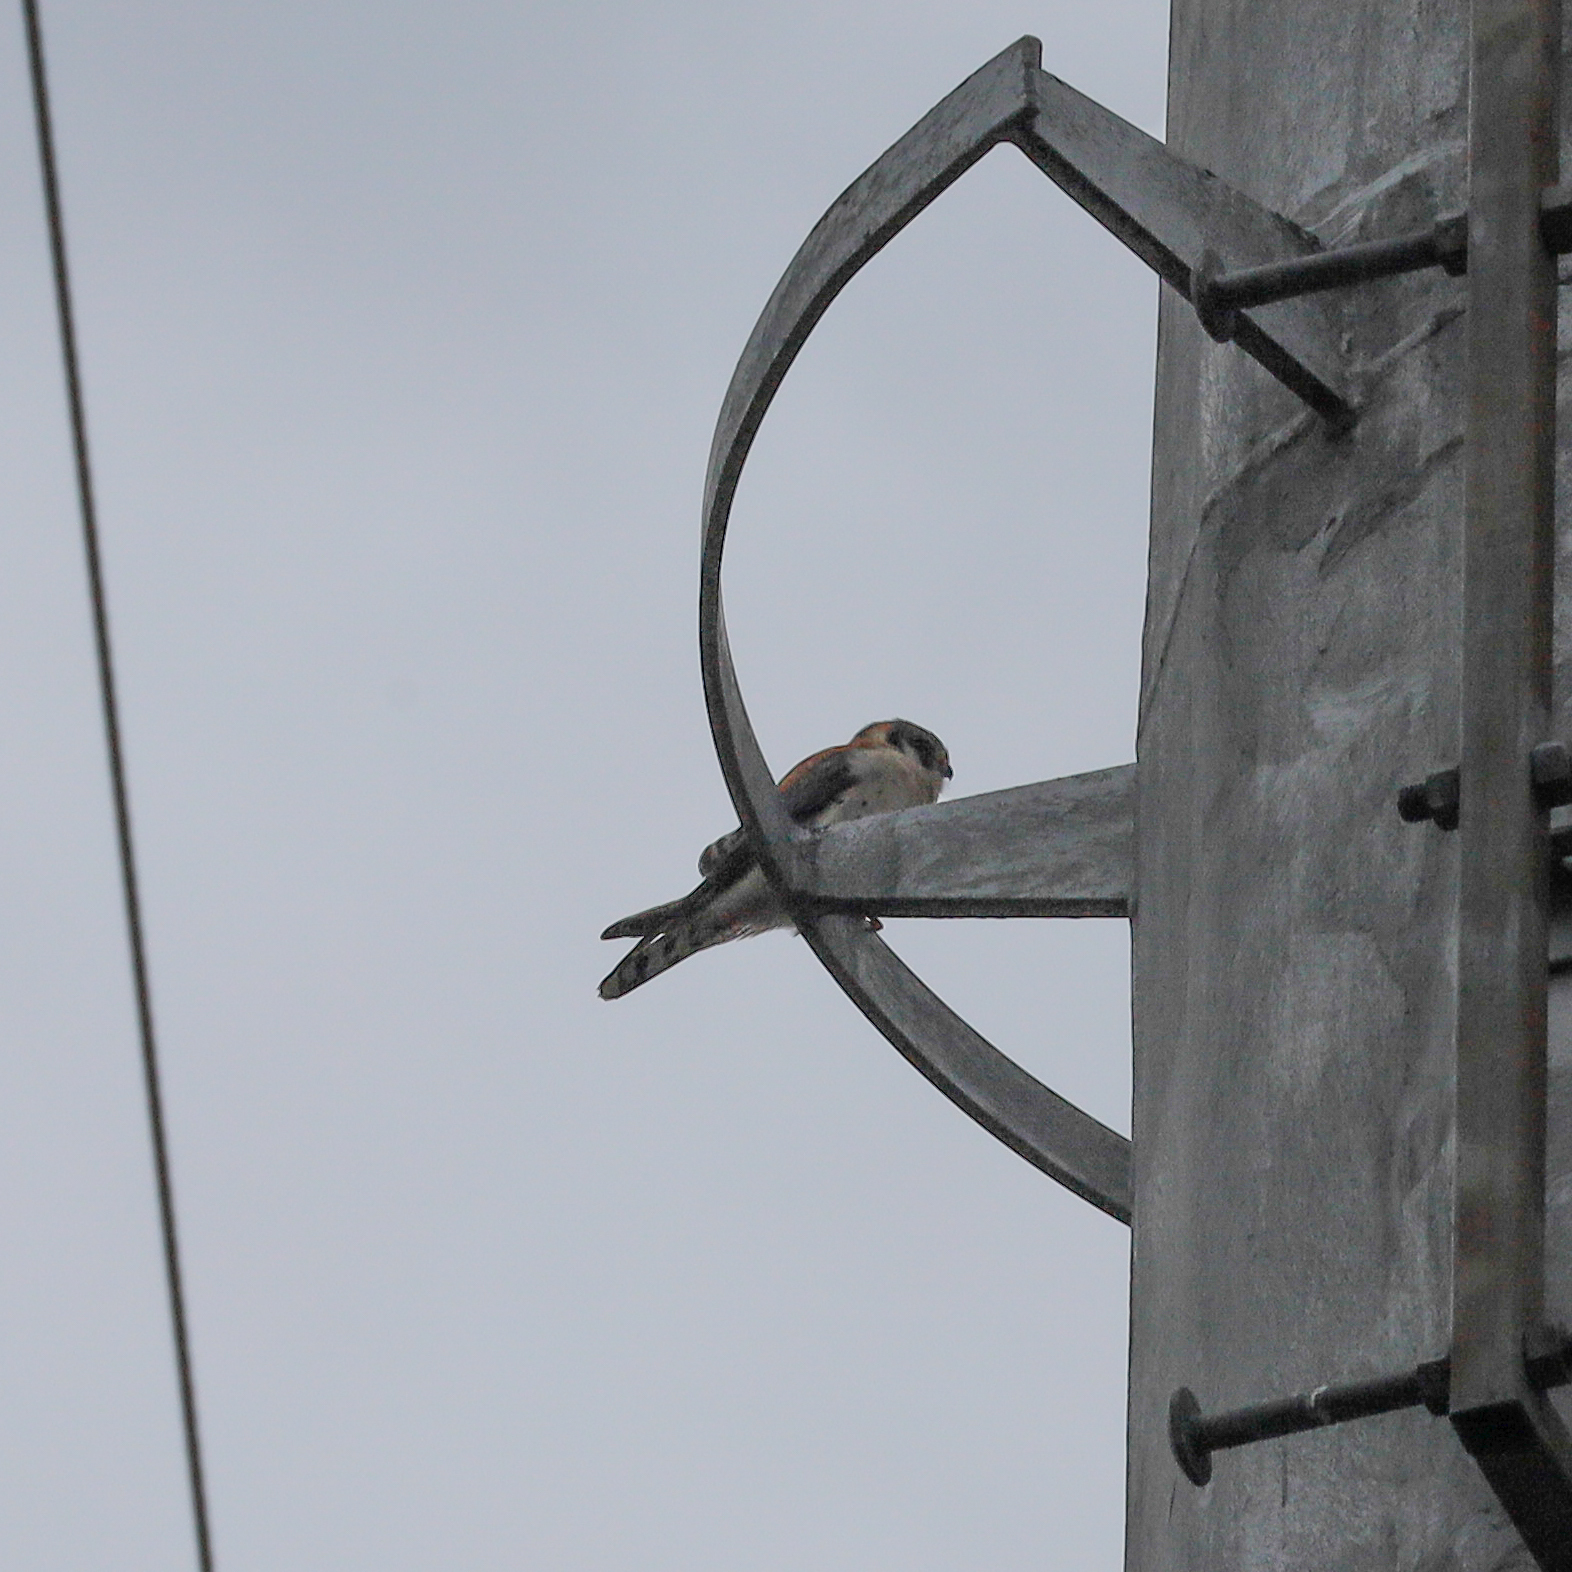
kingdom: Animalia
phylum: Chordata
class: Aves
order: Falconiformes
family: Falconidae
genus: Falco
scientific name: Falco sparverius
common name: American kestrel
